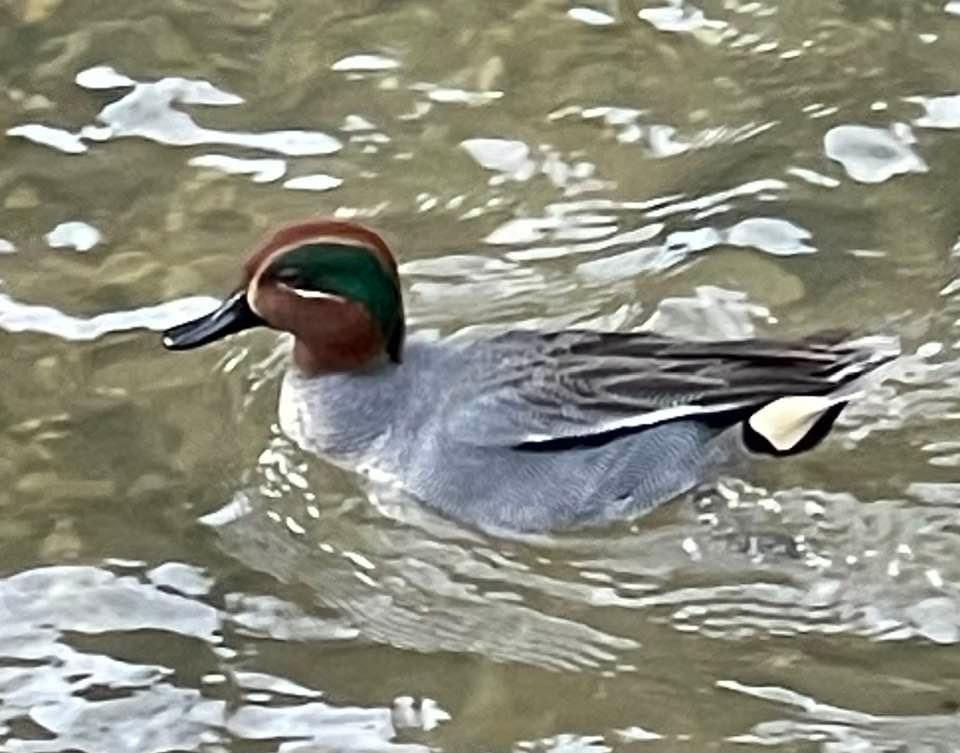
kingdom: Animalia
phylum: Chordata
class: Aves
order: Anseriformes
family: Anatidae
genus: Anas
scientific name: Anas crecca
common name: Eurasian teal
